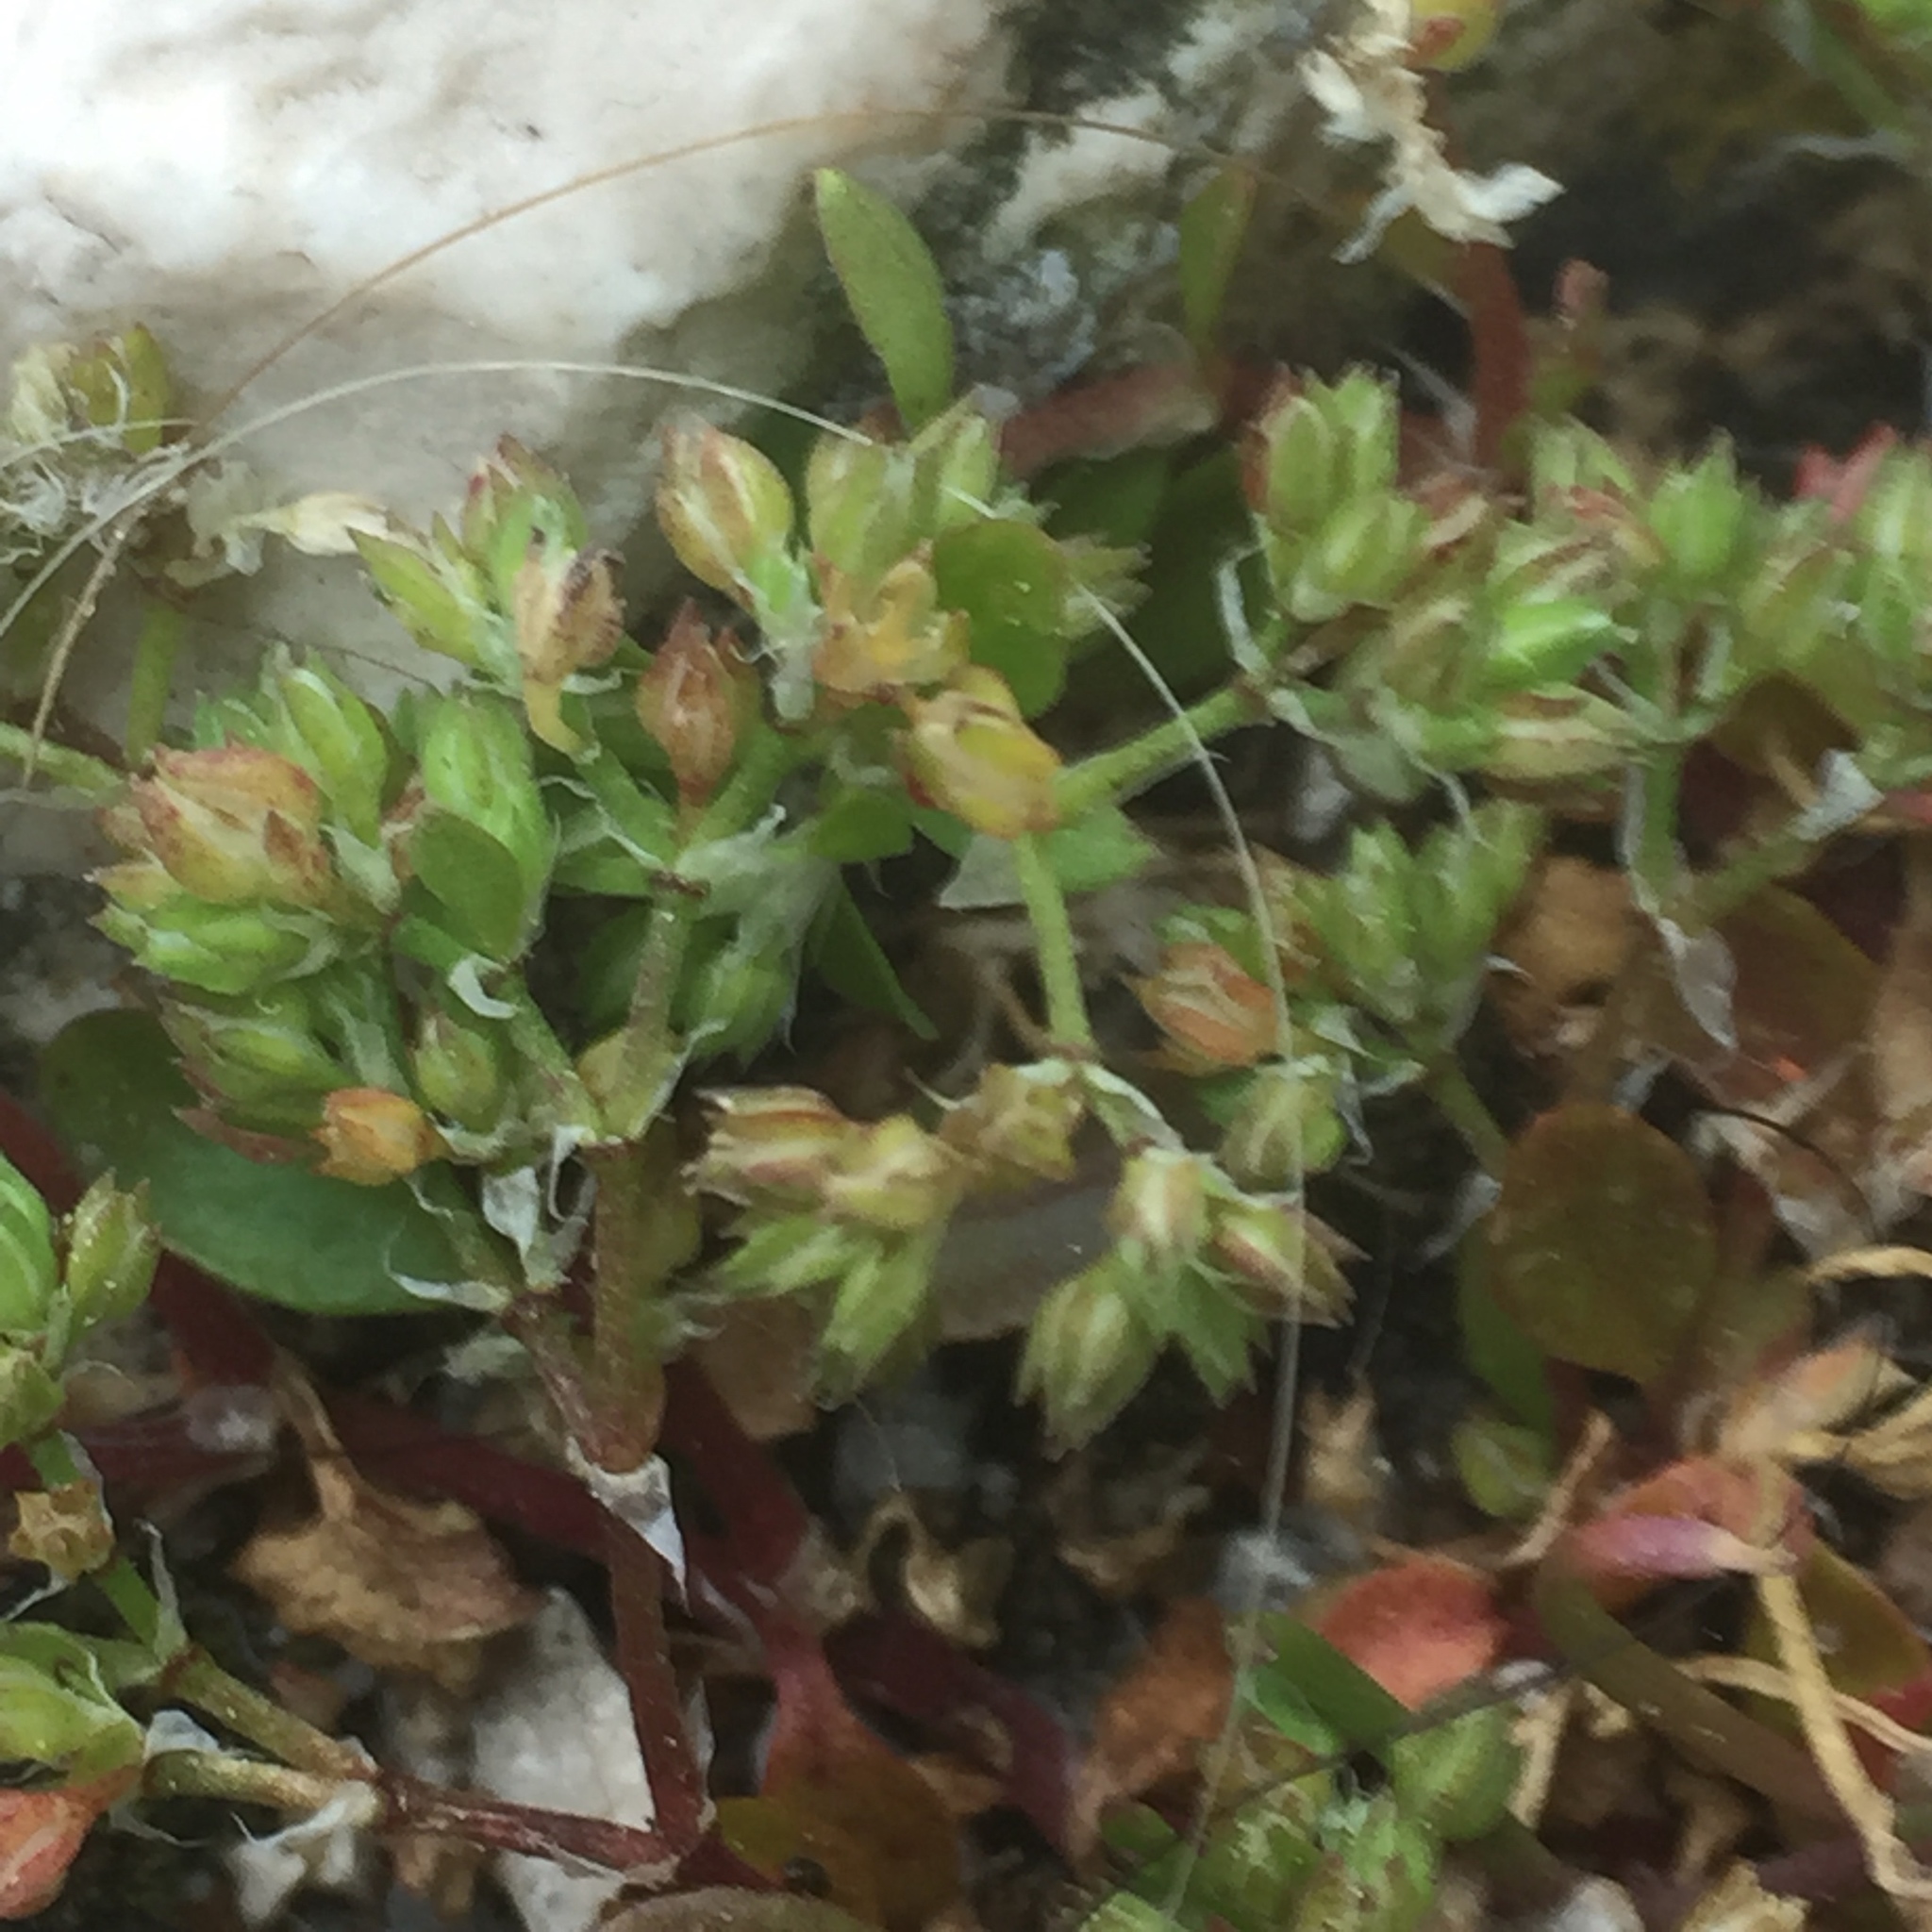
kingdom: Plantae
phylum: Tracheophyta
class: Magnoliopsida
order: Caryophyllales
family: Caryophyllaceae
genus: Polycarpon
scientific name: Polycarpon tetraphyllum
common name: Four-leaved all-seed
